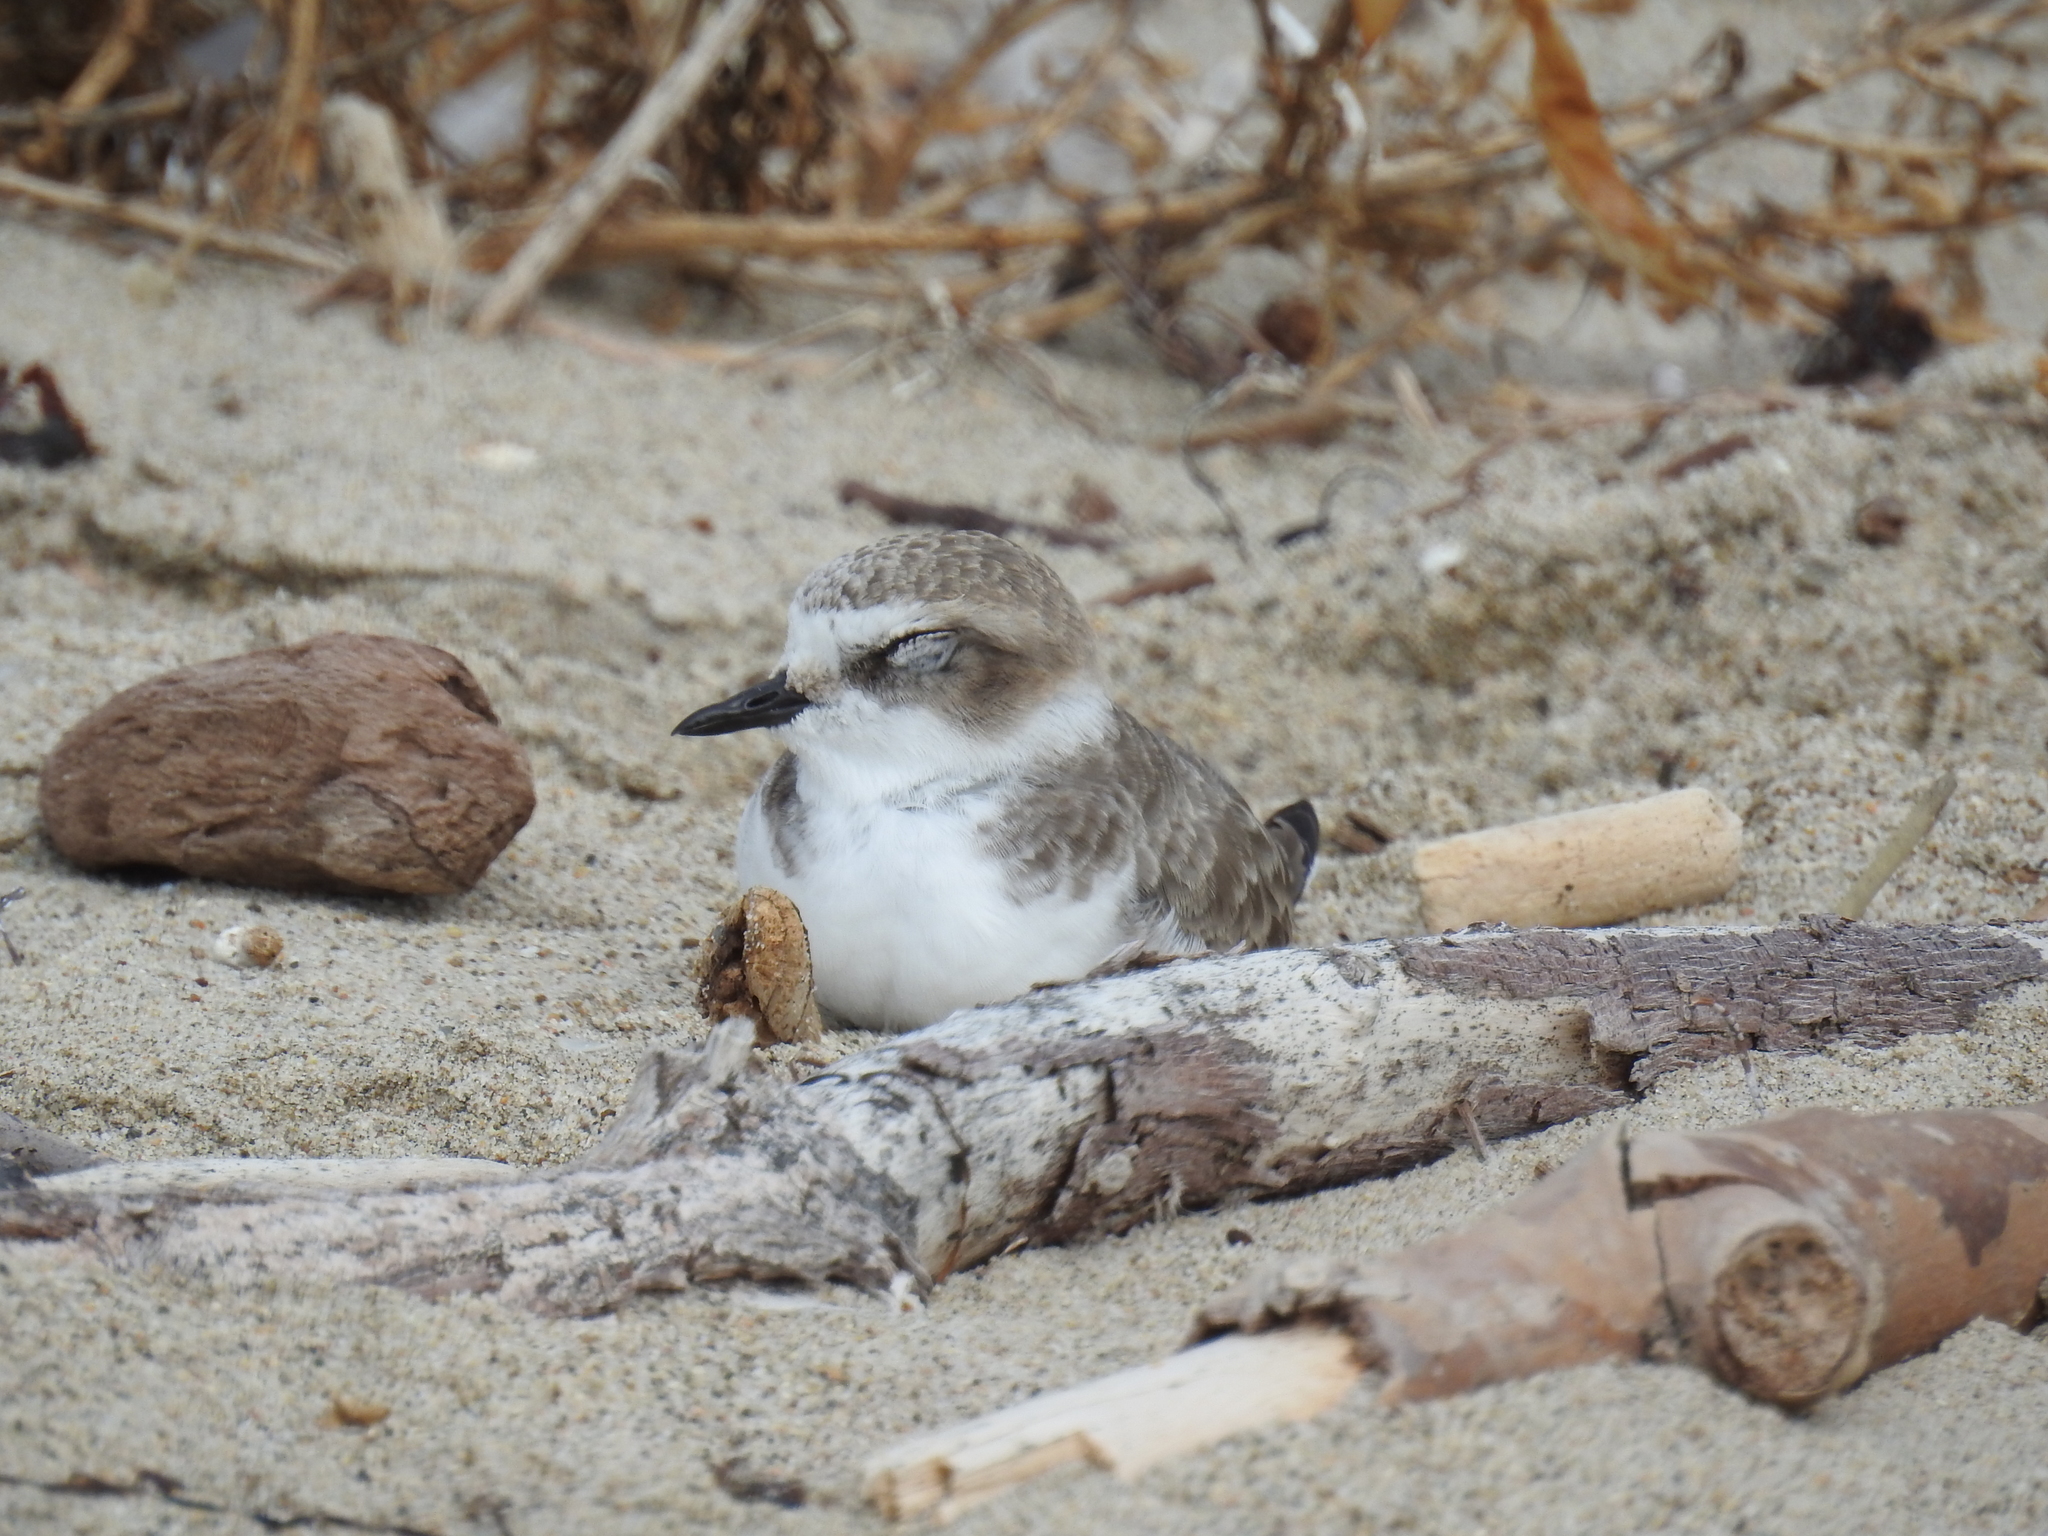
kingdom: Animalia
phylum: Chordata
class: Aves
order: Charadriiformes
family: Charadriidae
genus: Anarhynchus
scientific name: Anarhynchus
